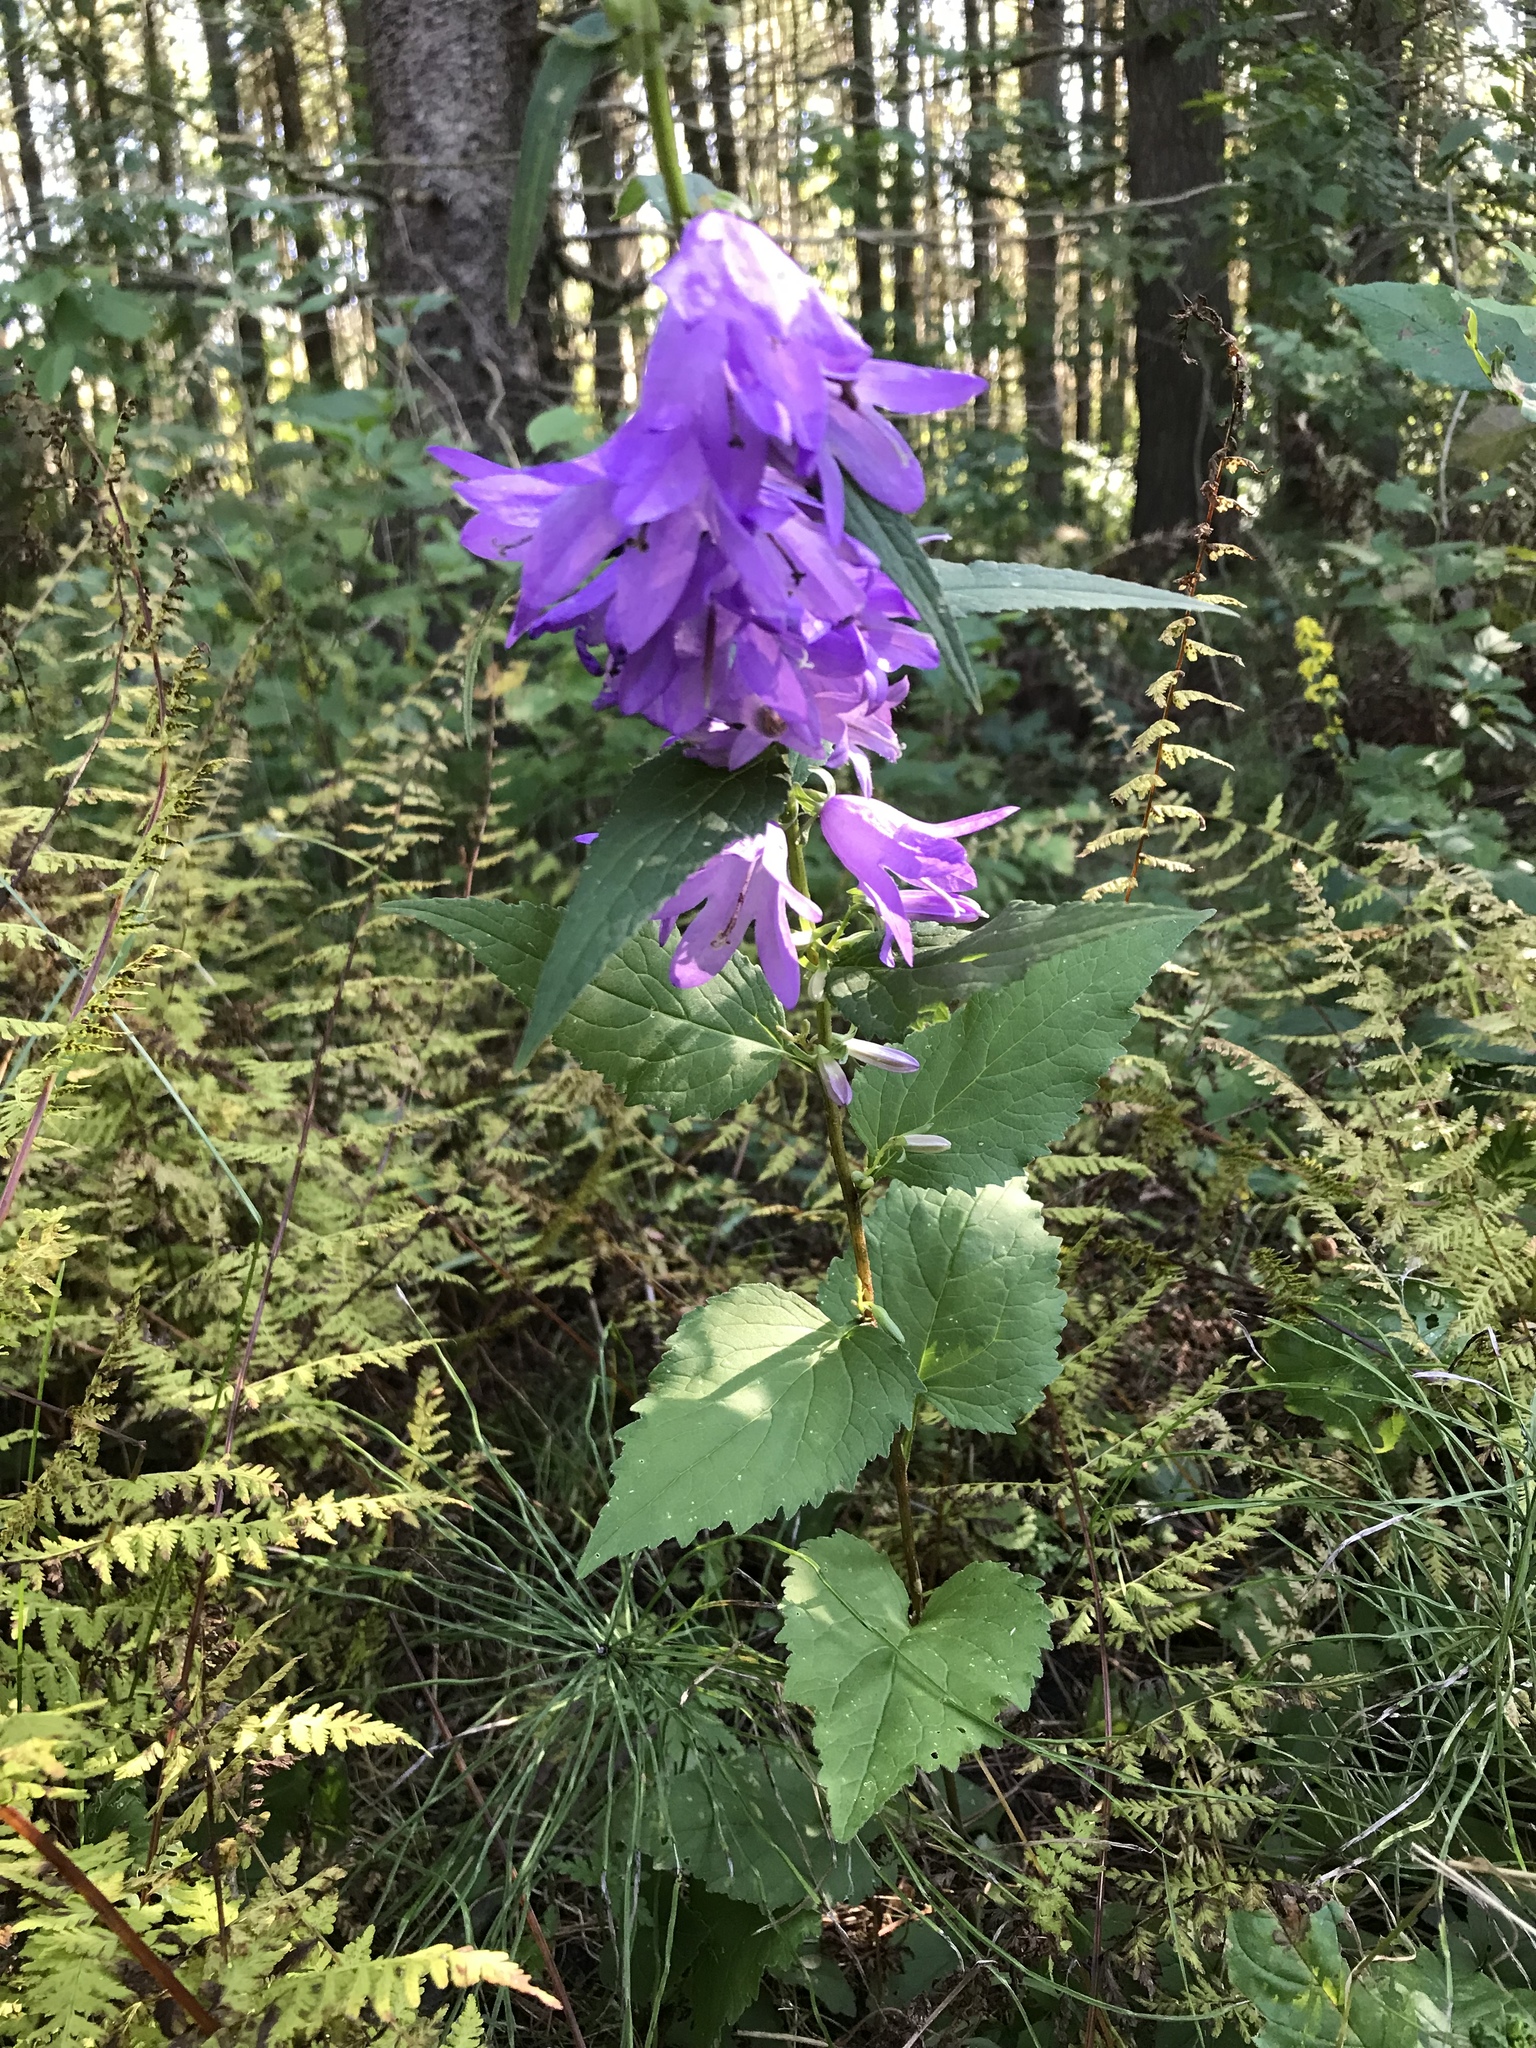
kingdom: Plantae
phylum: Tracheophyta
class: Magnoliopsida
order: Asterales
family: Campanulaceae
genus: Campanula
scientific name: Campanula rapunculoides
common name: Creeping bellflower
